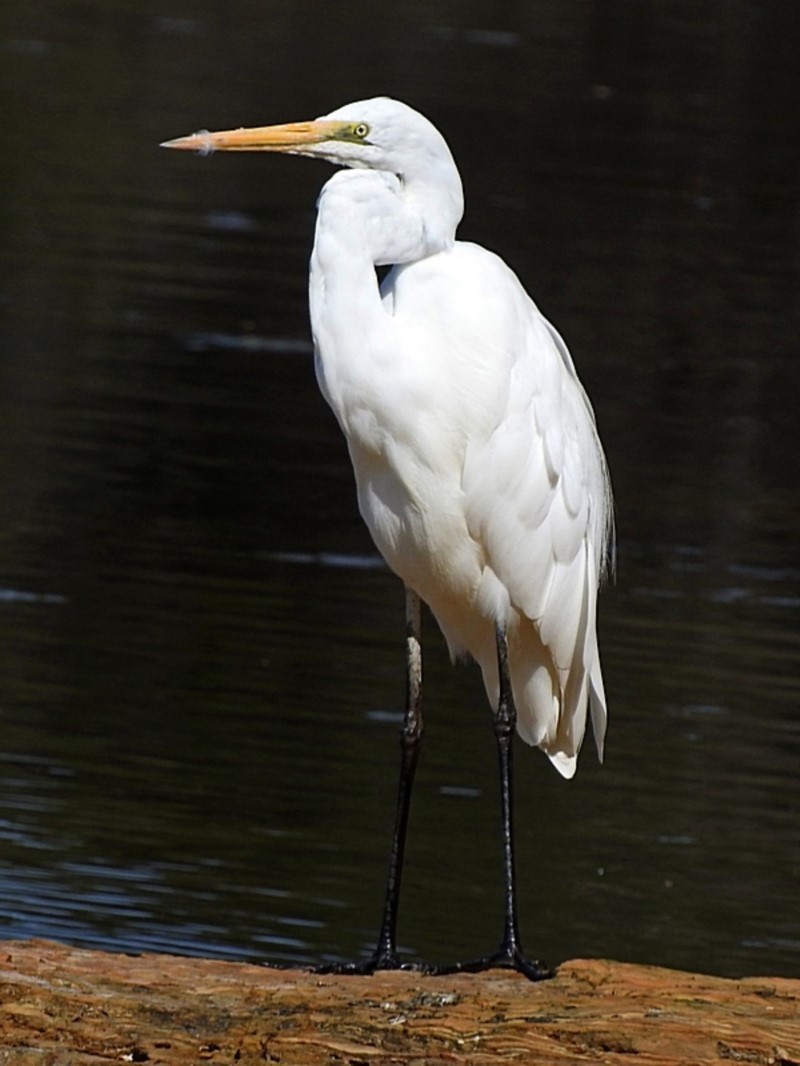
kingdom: Animalia
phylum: Chordata
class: Aves
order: Pelecaniformes
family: Ardeidae
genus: Ardea
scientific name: Ardea alba
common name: Great egret
